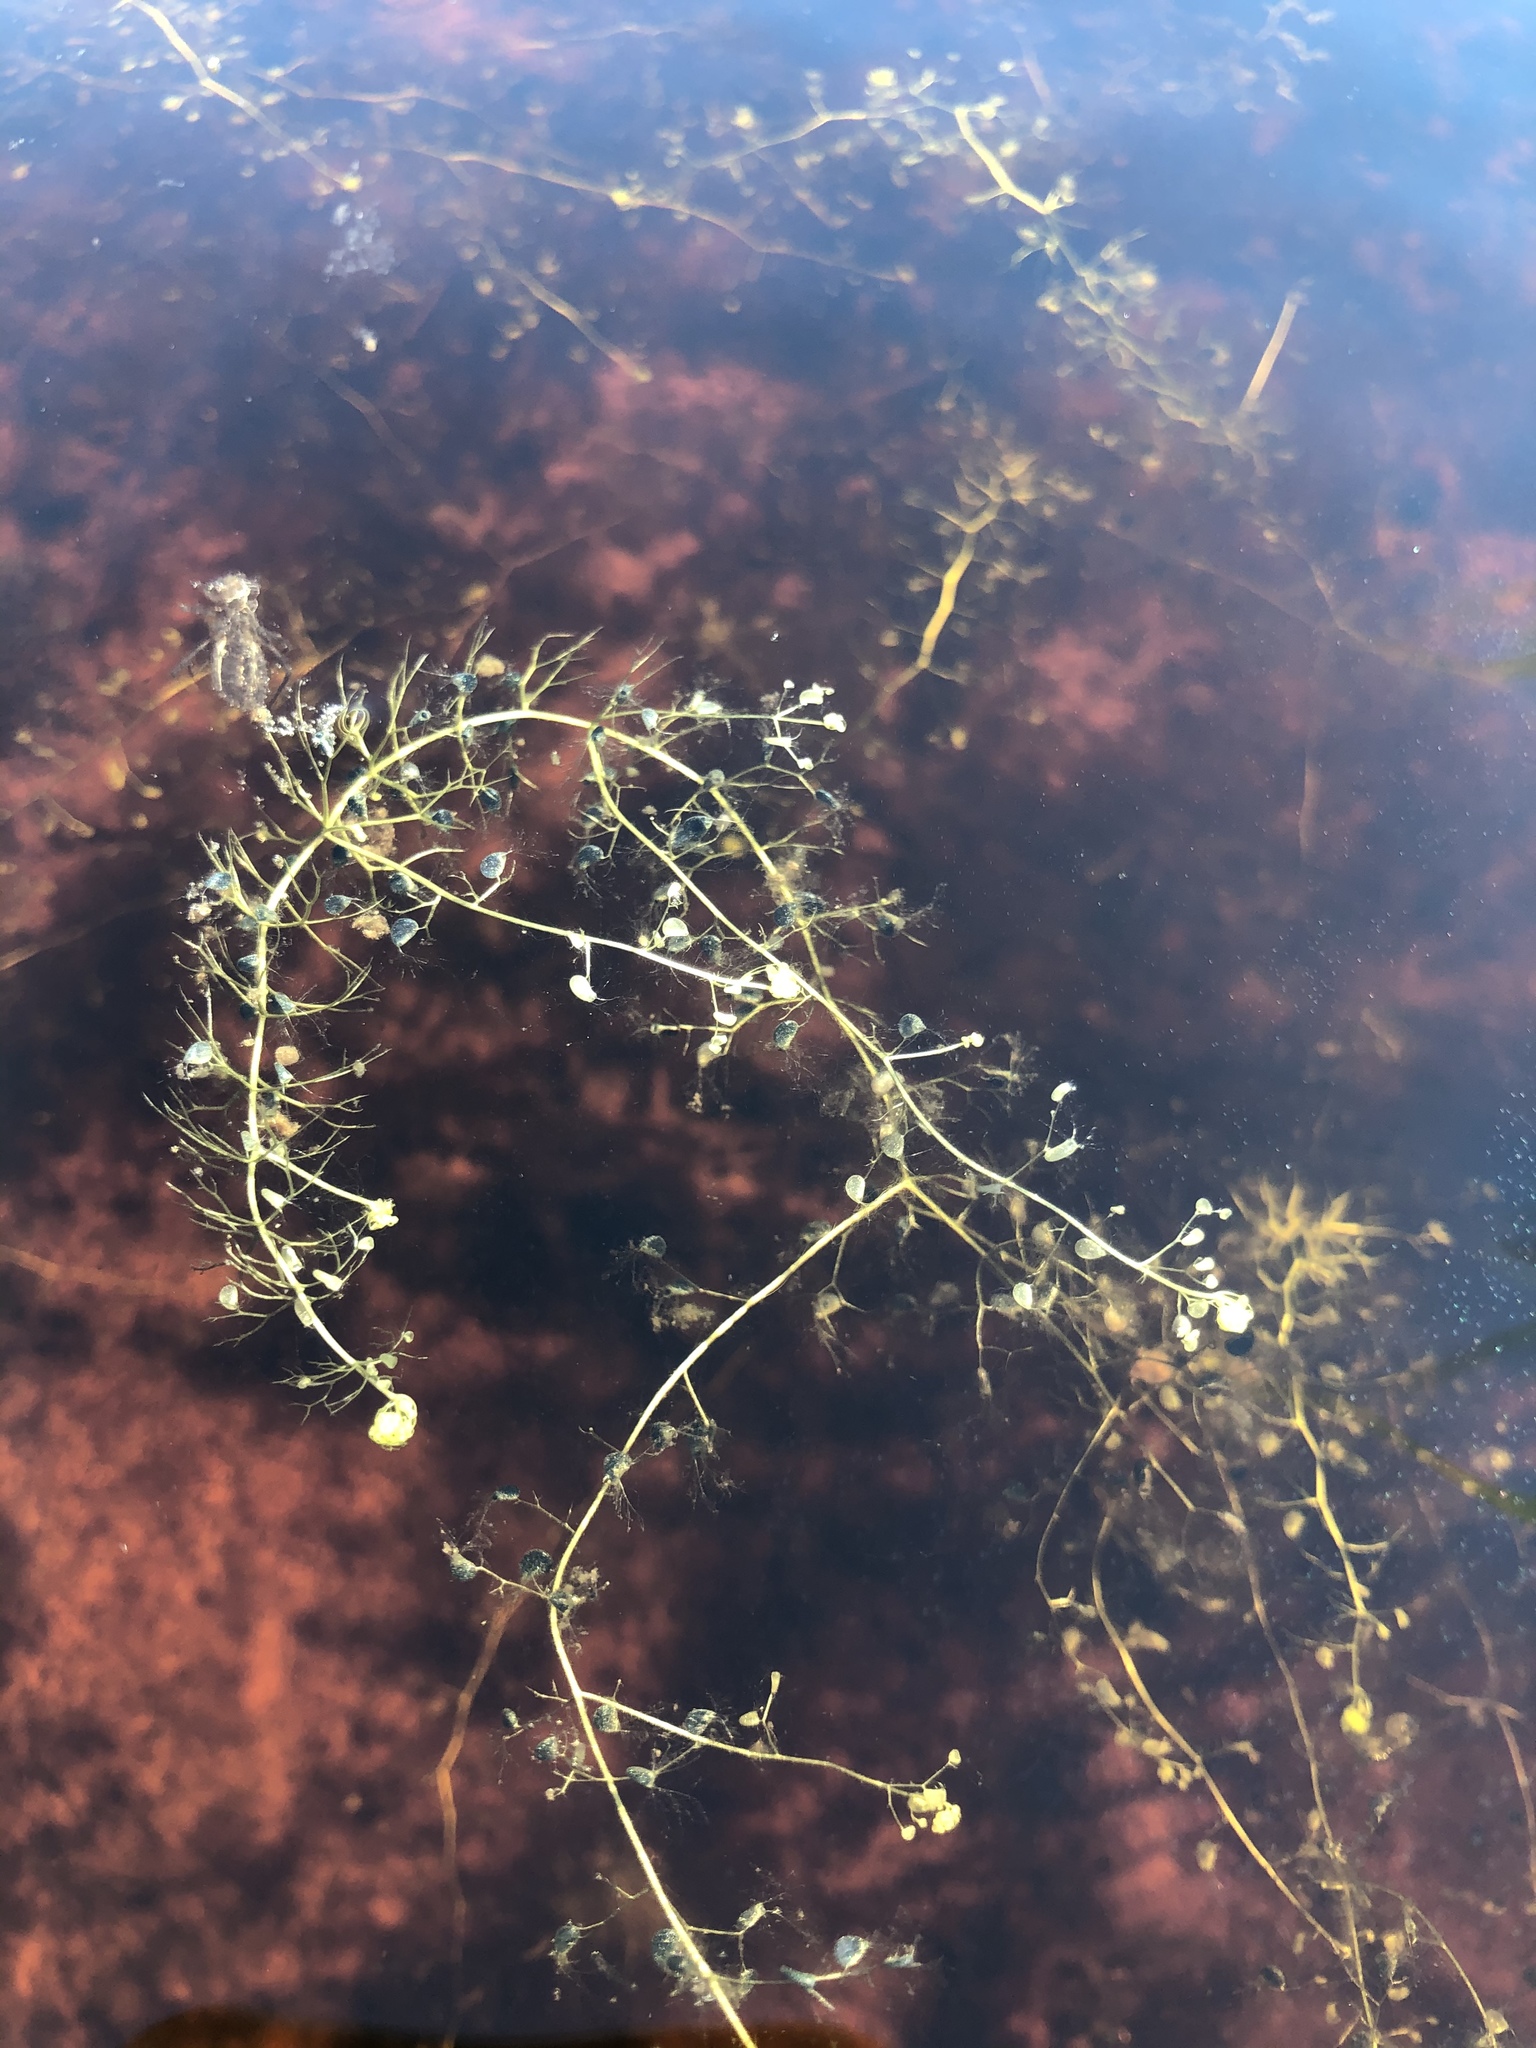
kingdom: Plantae
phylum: Tracheophyta
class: Magnoliopsida
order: Lamiales
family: Lentibulariaceae
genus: Utricularia
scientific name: Utricularia minor
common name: Lesser bladderwort
